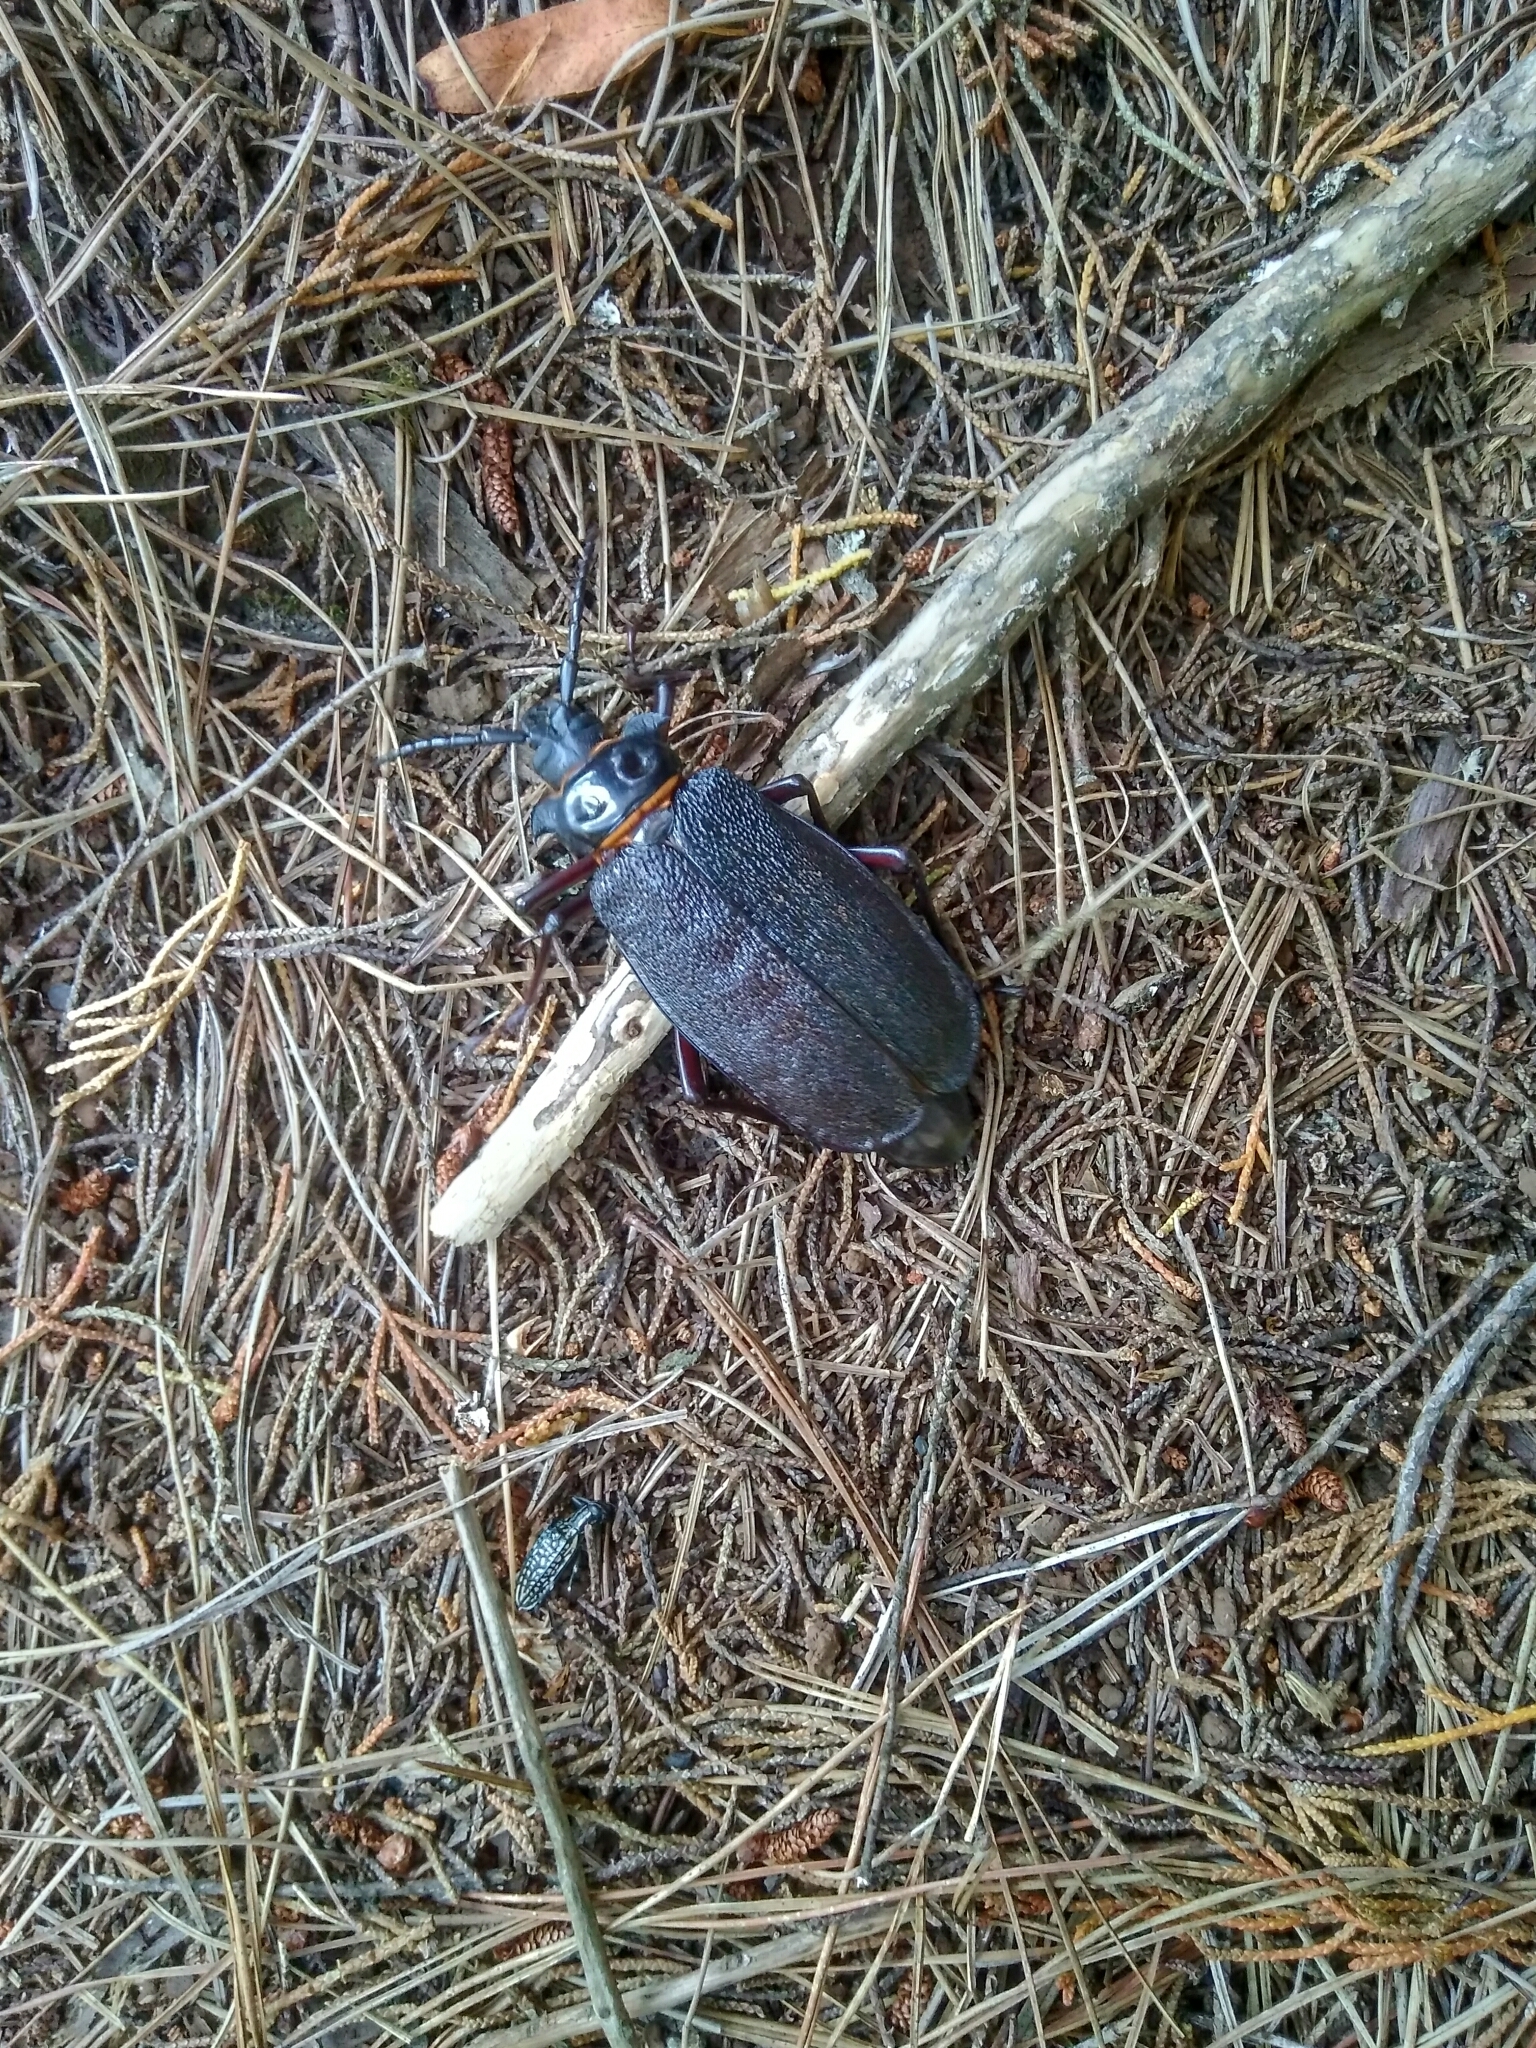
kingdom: Animalia
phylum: Arthropoda
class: Insecta
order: Coleoptera
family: Cerambycidae
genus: Acanthinodera
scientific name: Acanthinodera cumingii
